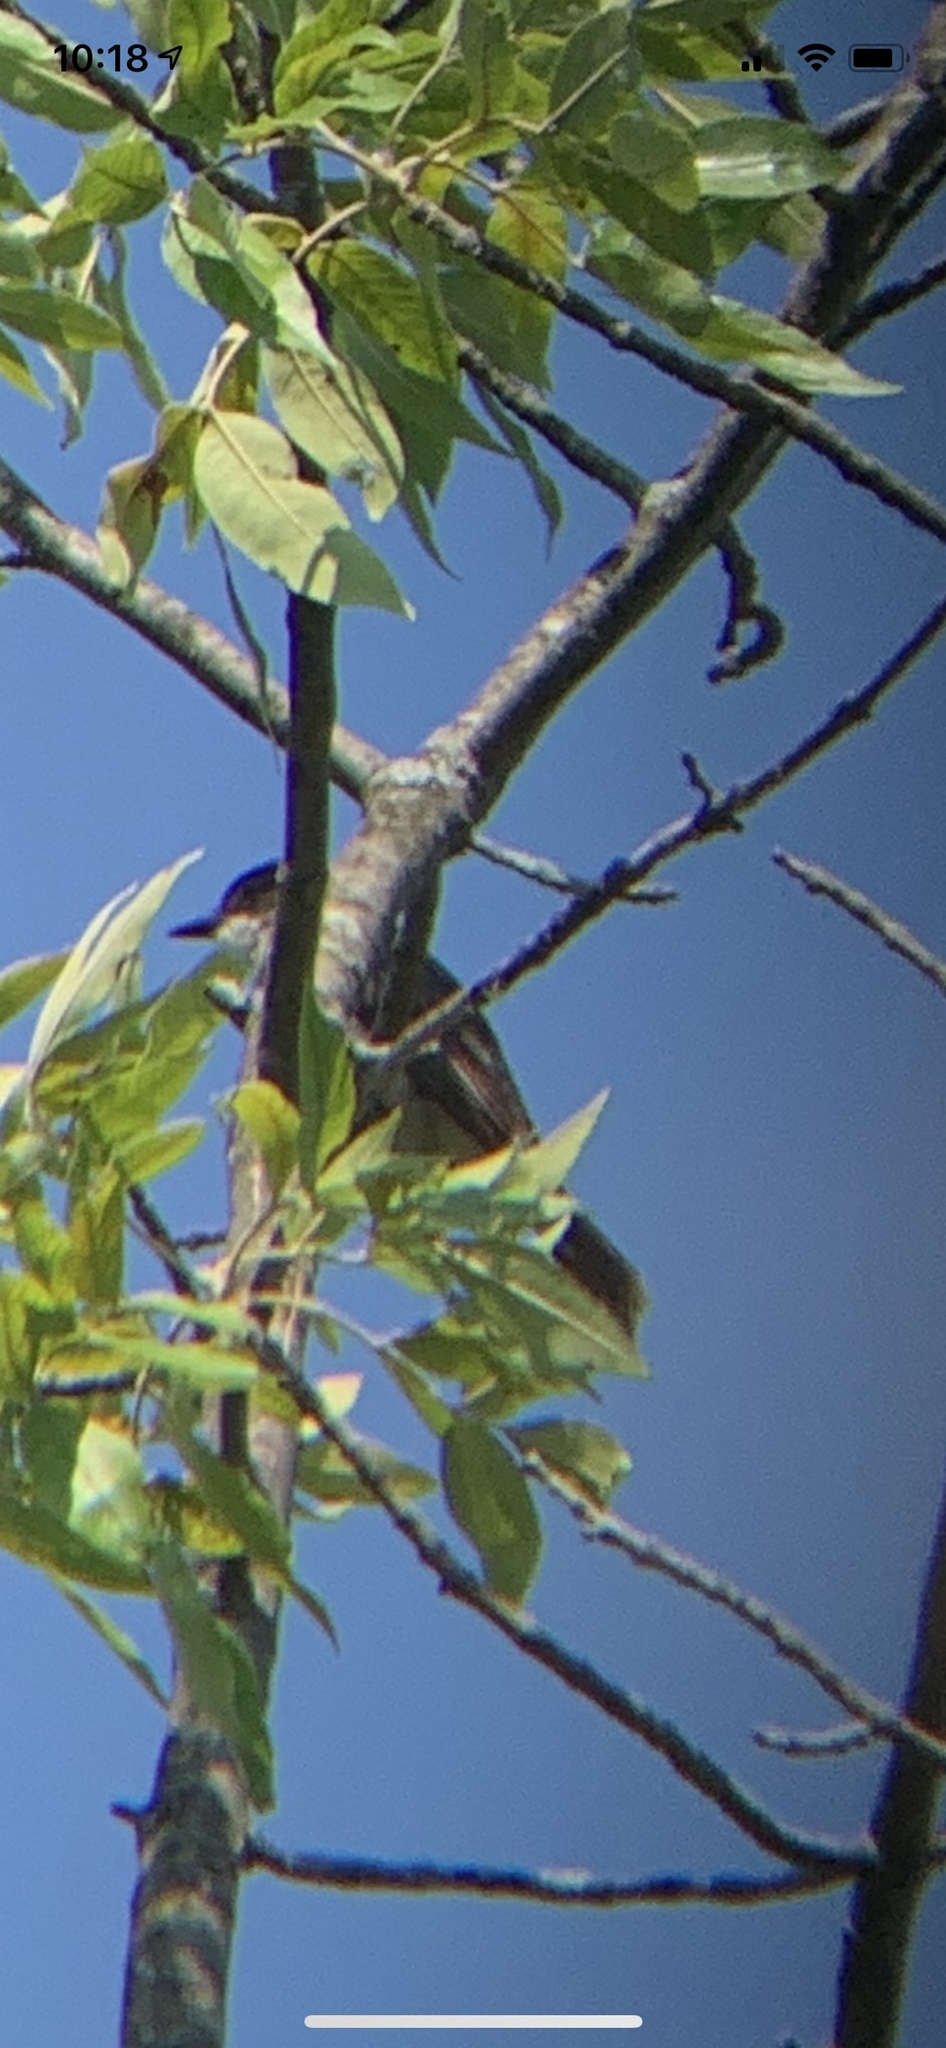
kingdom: Animalia
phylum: Chordata
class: Aves
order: Passeriformes
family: Tyrannidae
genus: Tyrannus
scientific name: Tyrannus tyrannus
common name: Eastern kingbird
